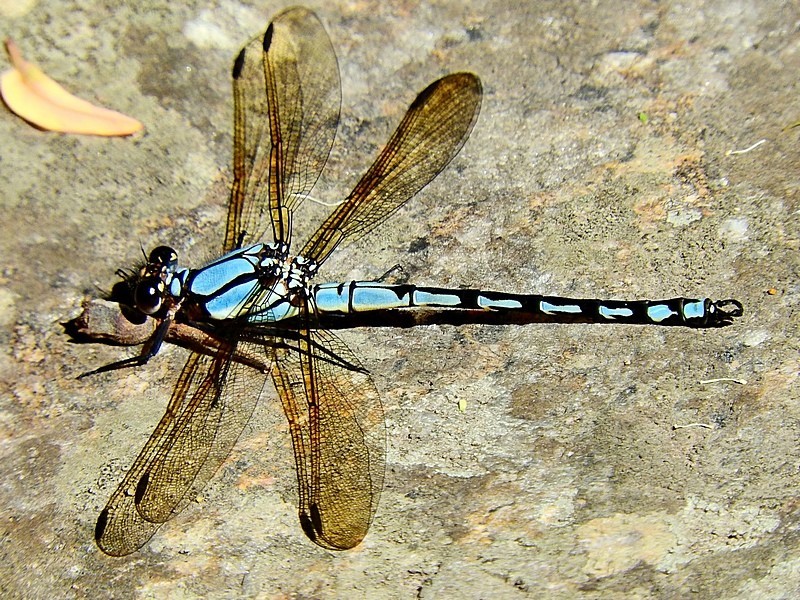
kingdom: Animalia
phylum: Arthropoda
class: Insecta
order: Odonata
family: Lestoideidae
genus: Diphlebia
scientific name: Diphlebia nymphoides
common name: Arrowhead rockmaster
